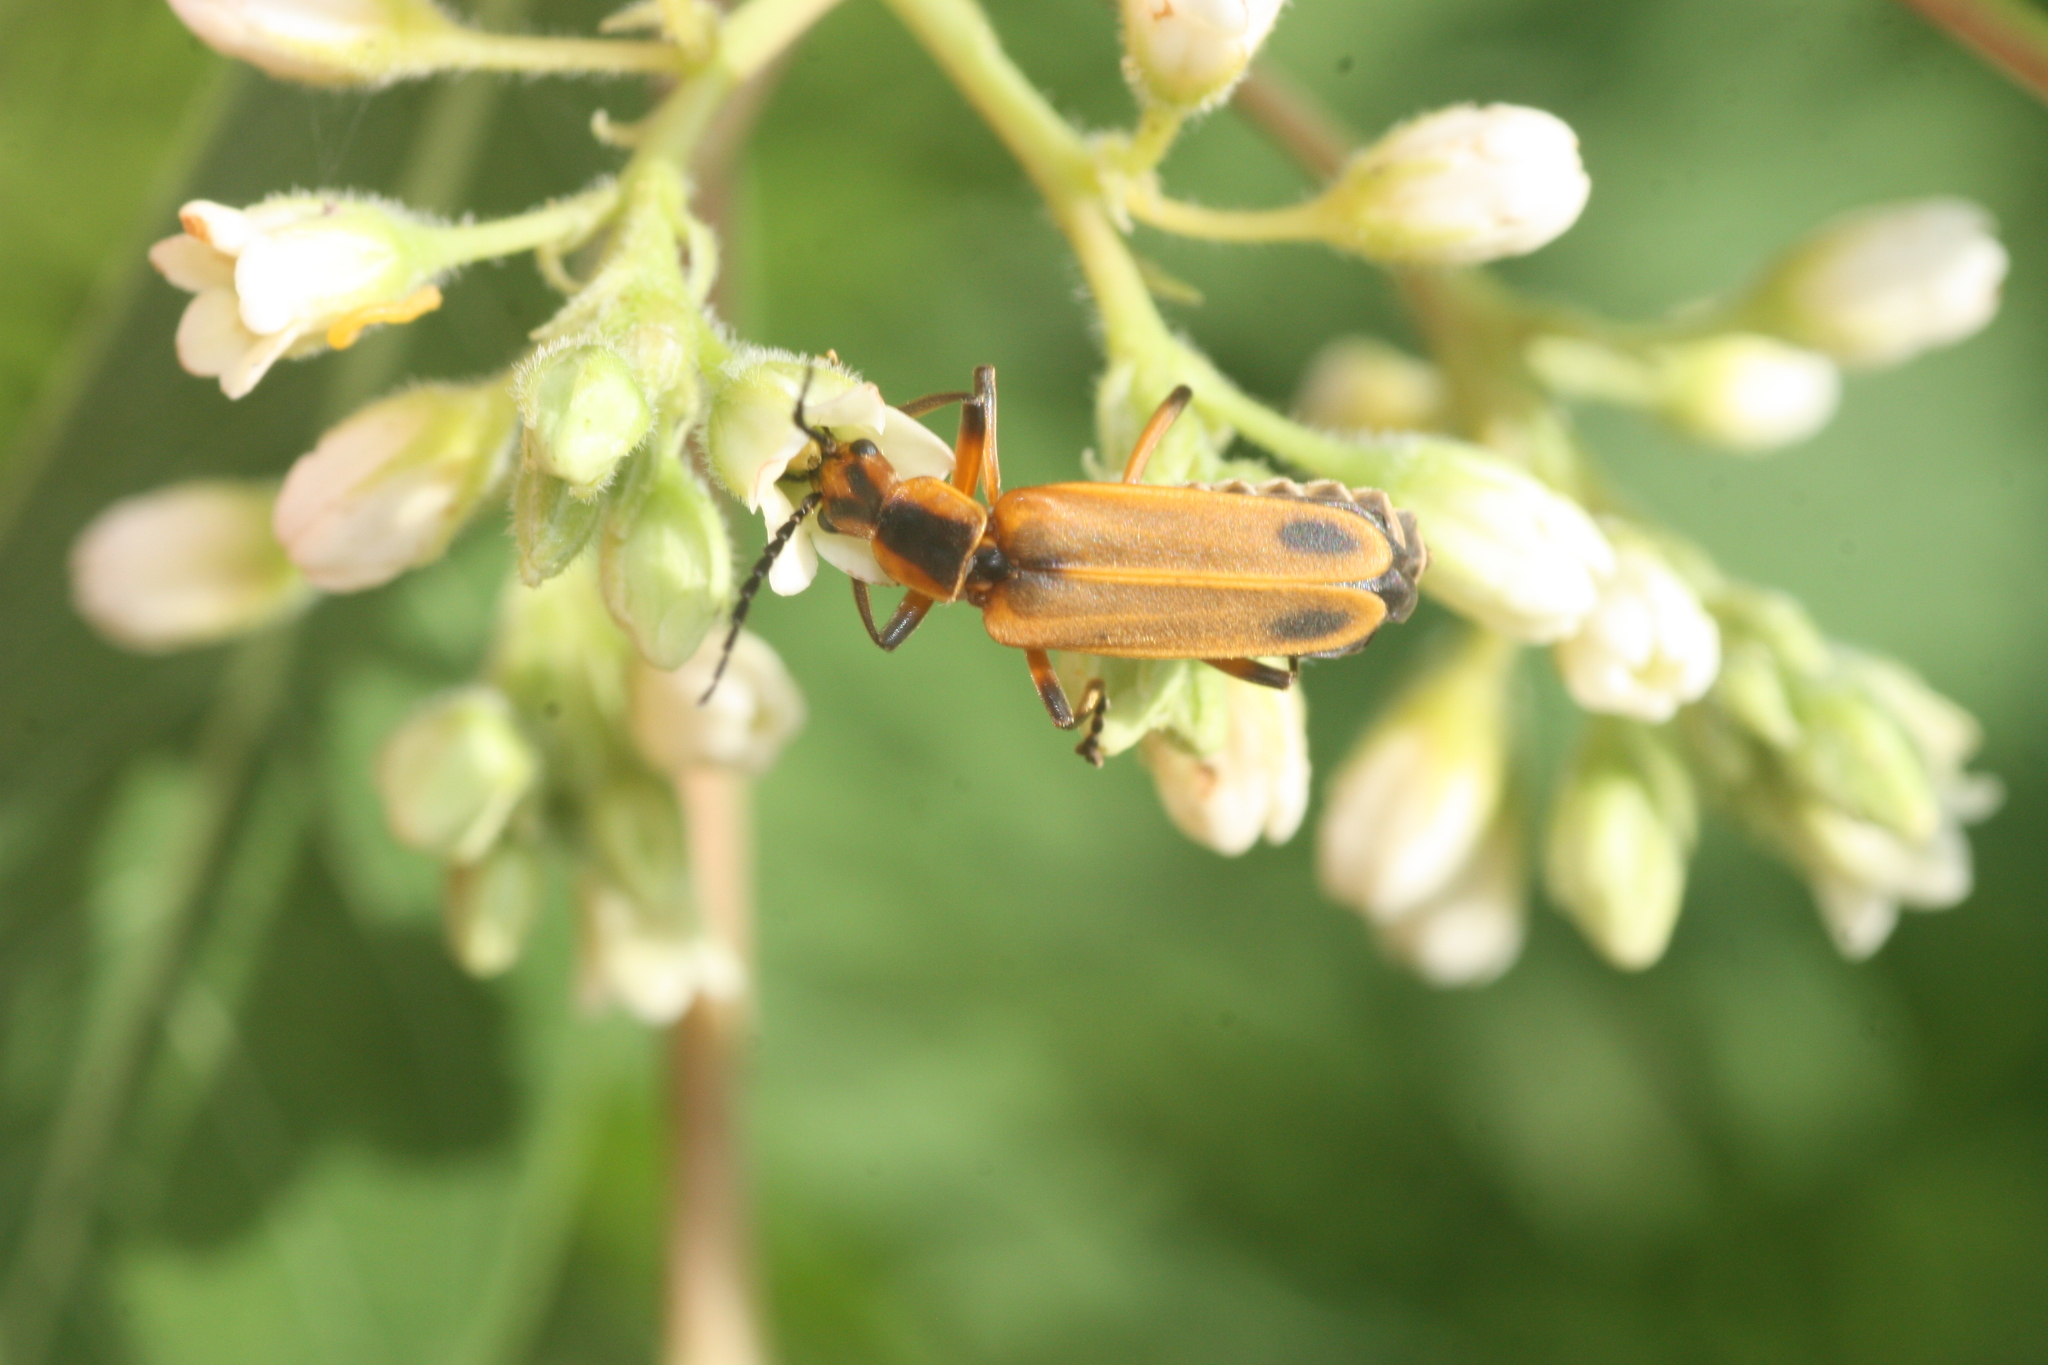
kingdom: Animalia
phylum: Arthropoda
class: Insecta
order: Coleoptera
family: Cantharidae
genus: Chauliognathus
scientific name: Chauliognathus marginatus
